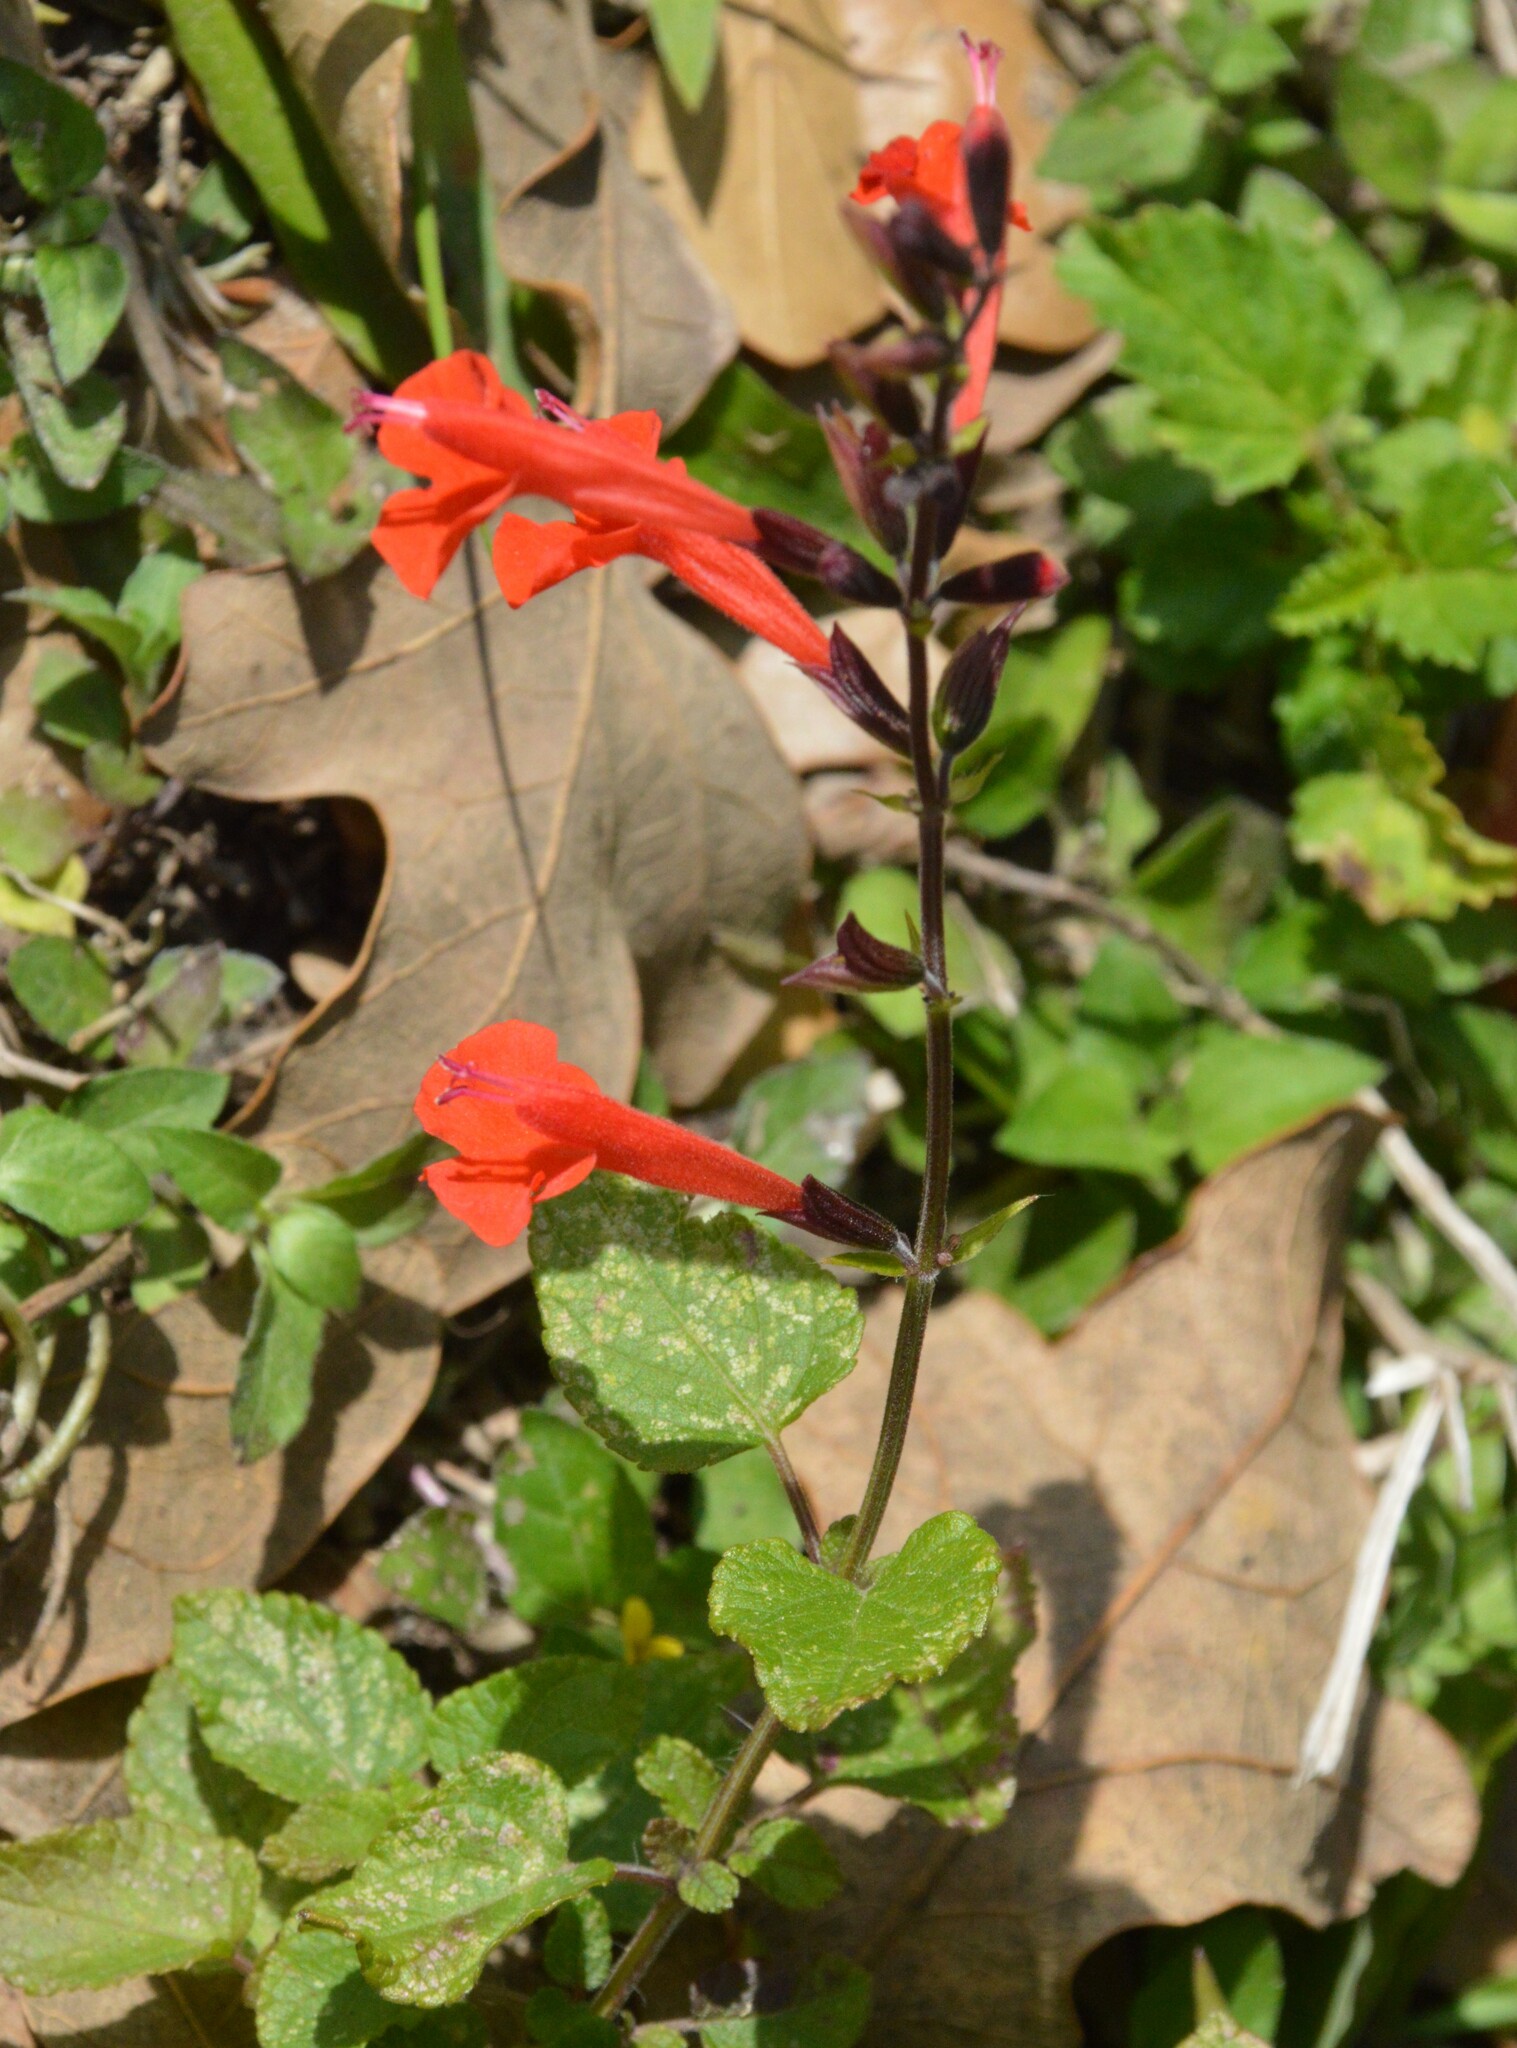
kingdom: Plantae
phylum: Tracheophyta
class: Magnoliopsida
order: Lamiales
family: Lamiaceae
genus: Salvia
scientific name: Salvia coccinea
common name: Blood sage
